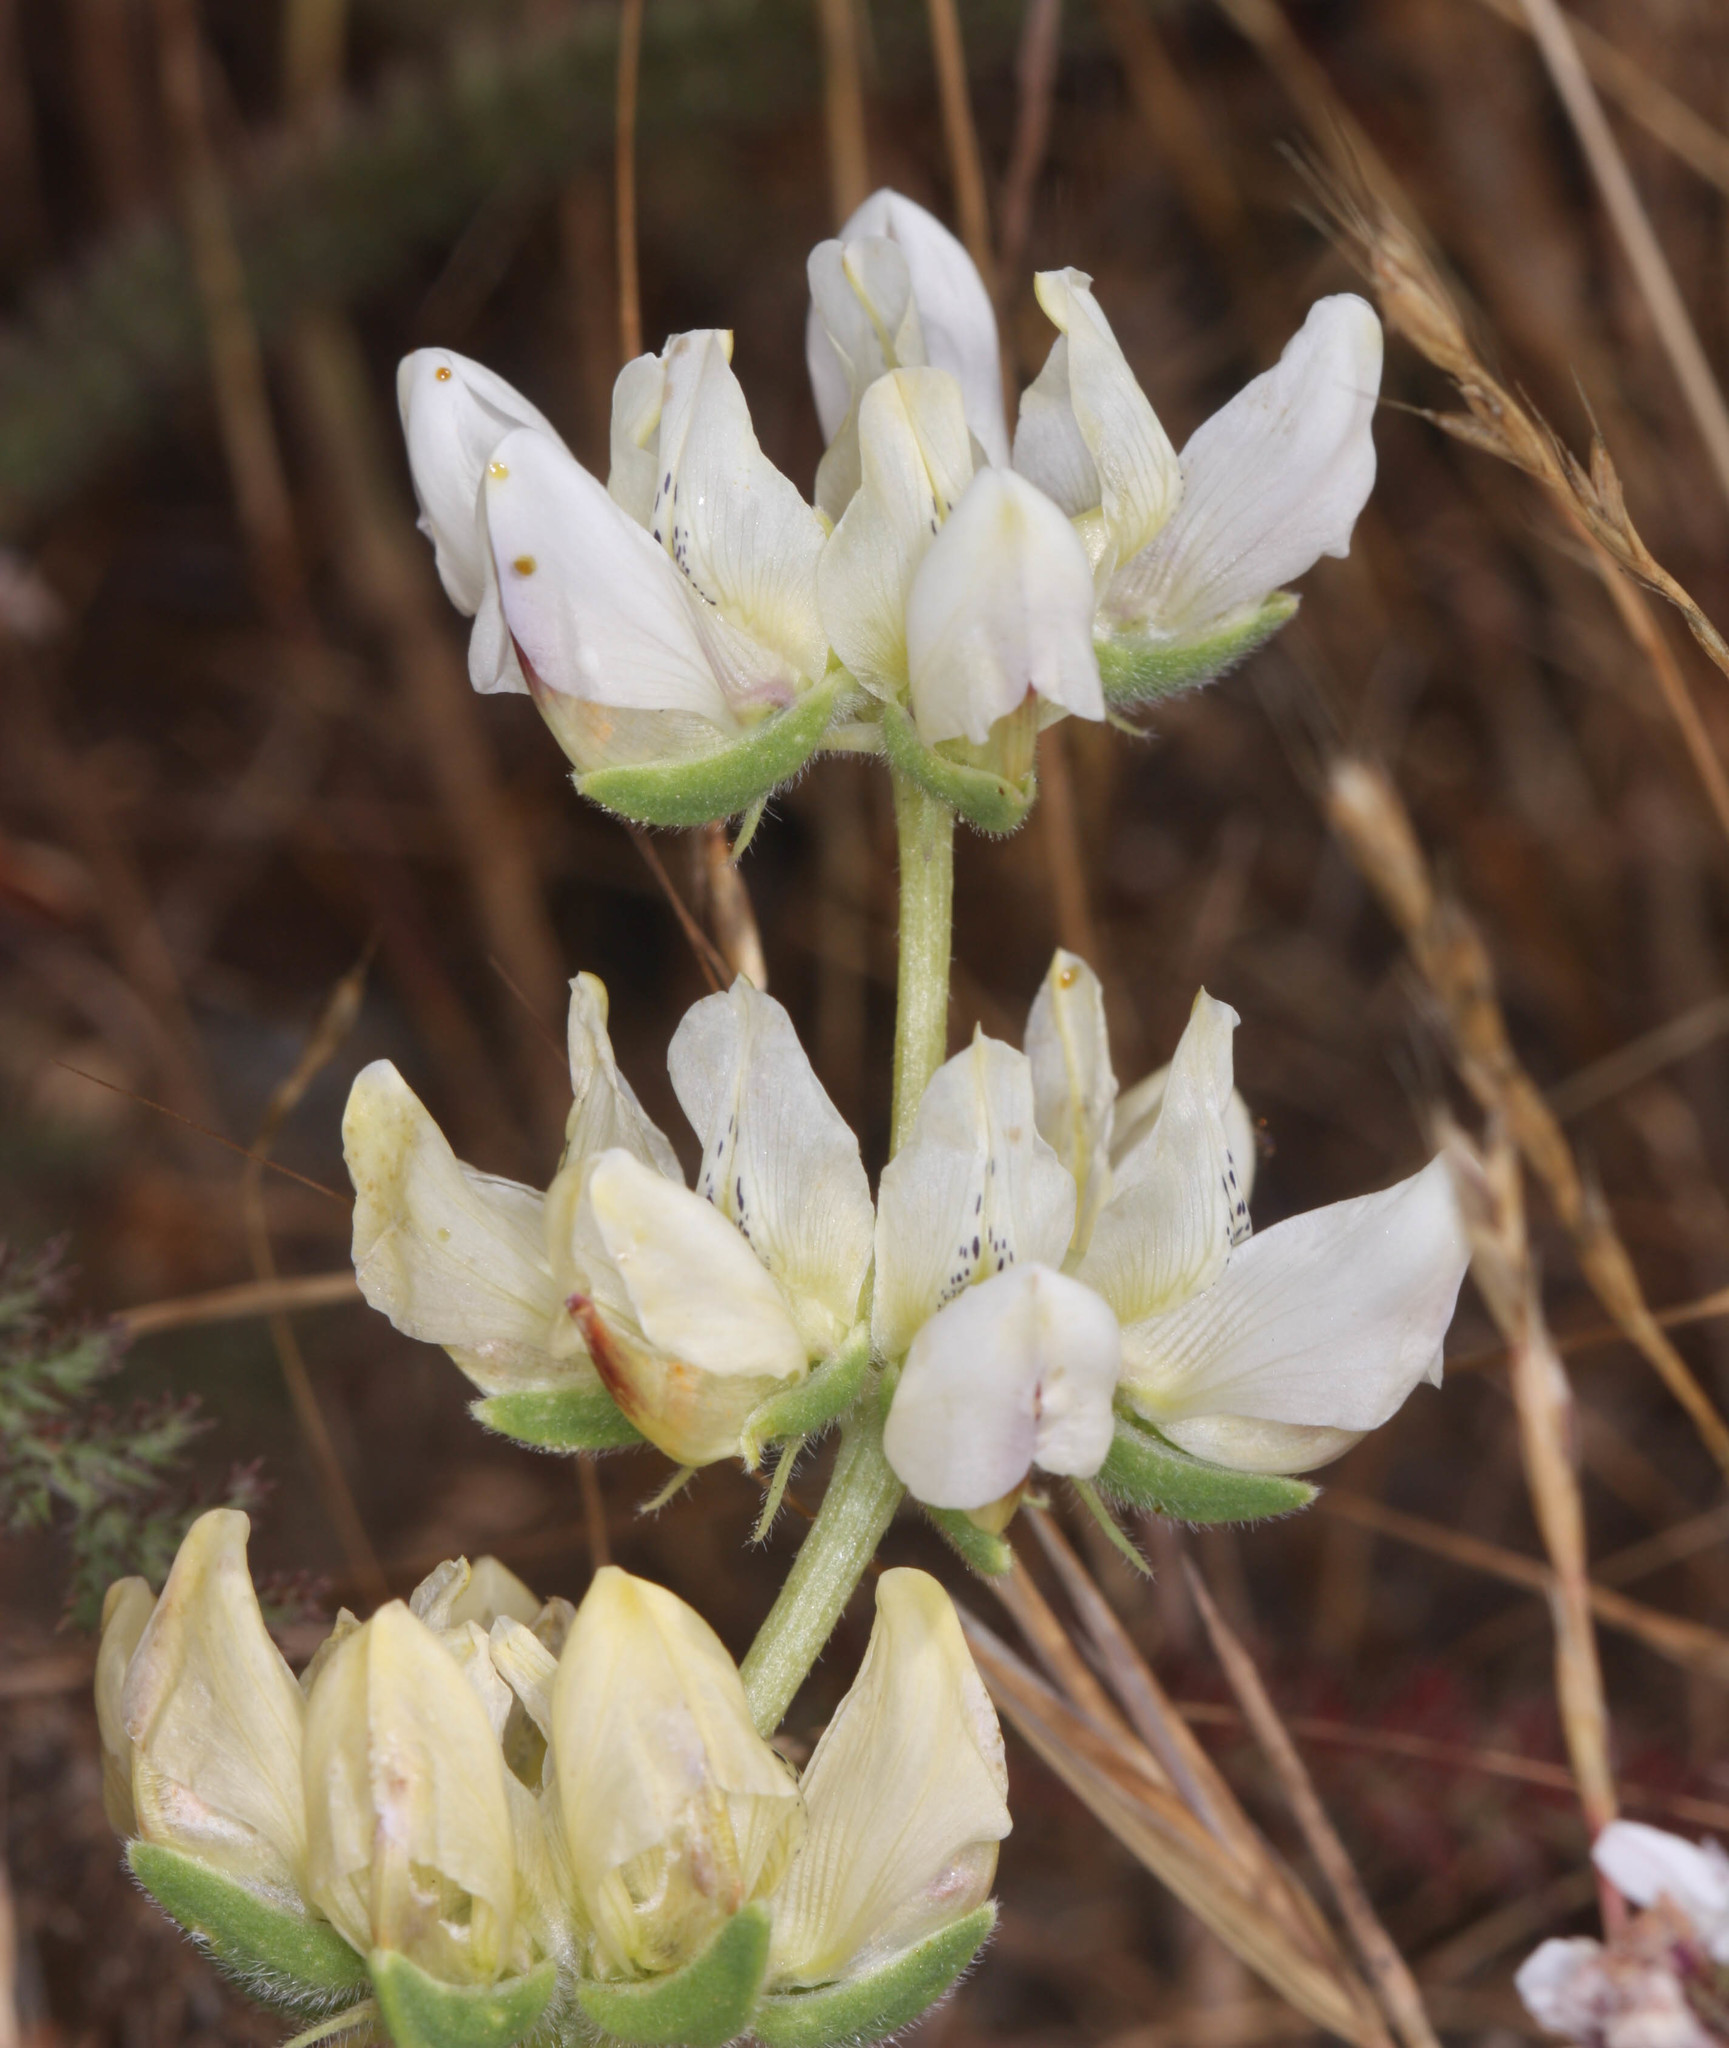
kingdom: Plantae
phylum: Tracheophyta
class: Magnoliopsida
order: Fabales
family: Fabaceae
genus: Lupinus
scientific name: Lupinus densiflorus
